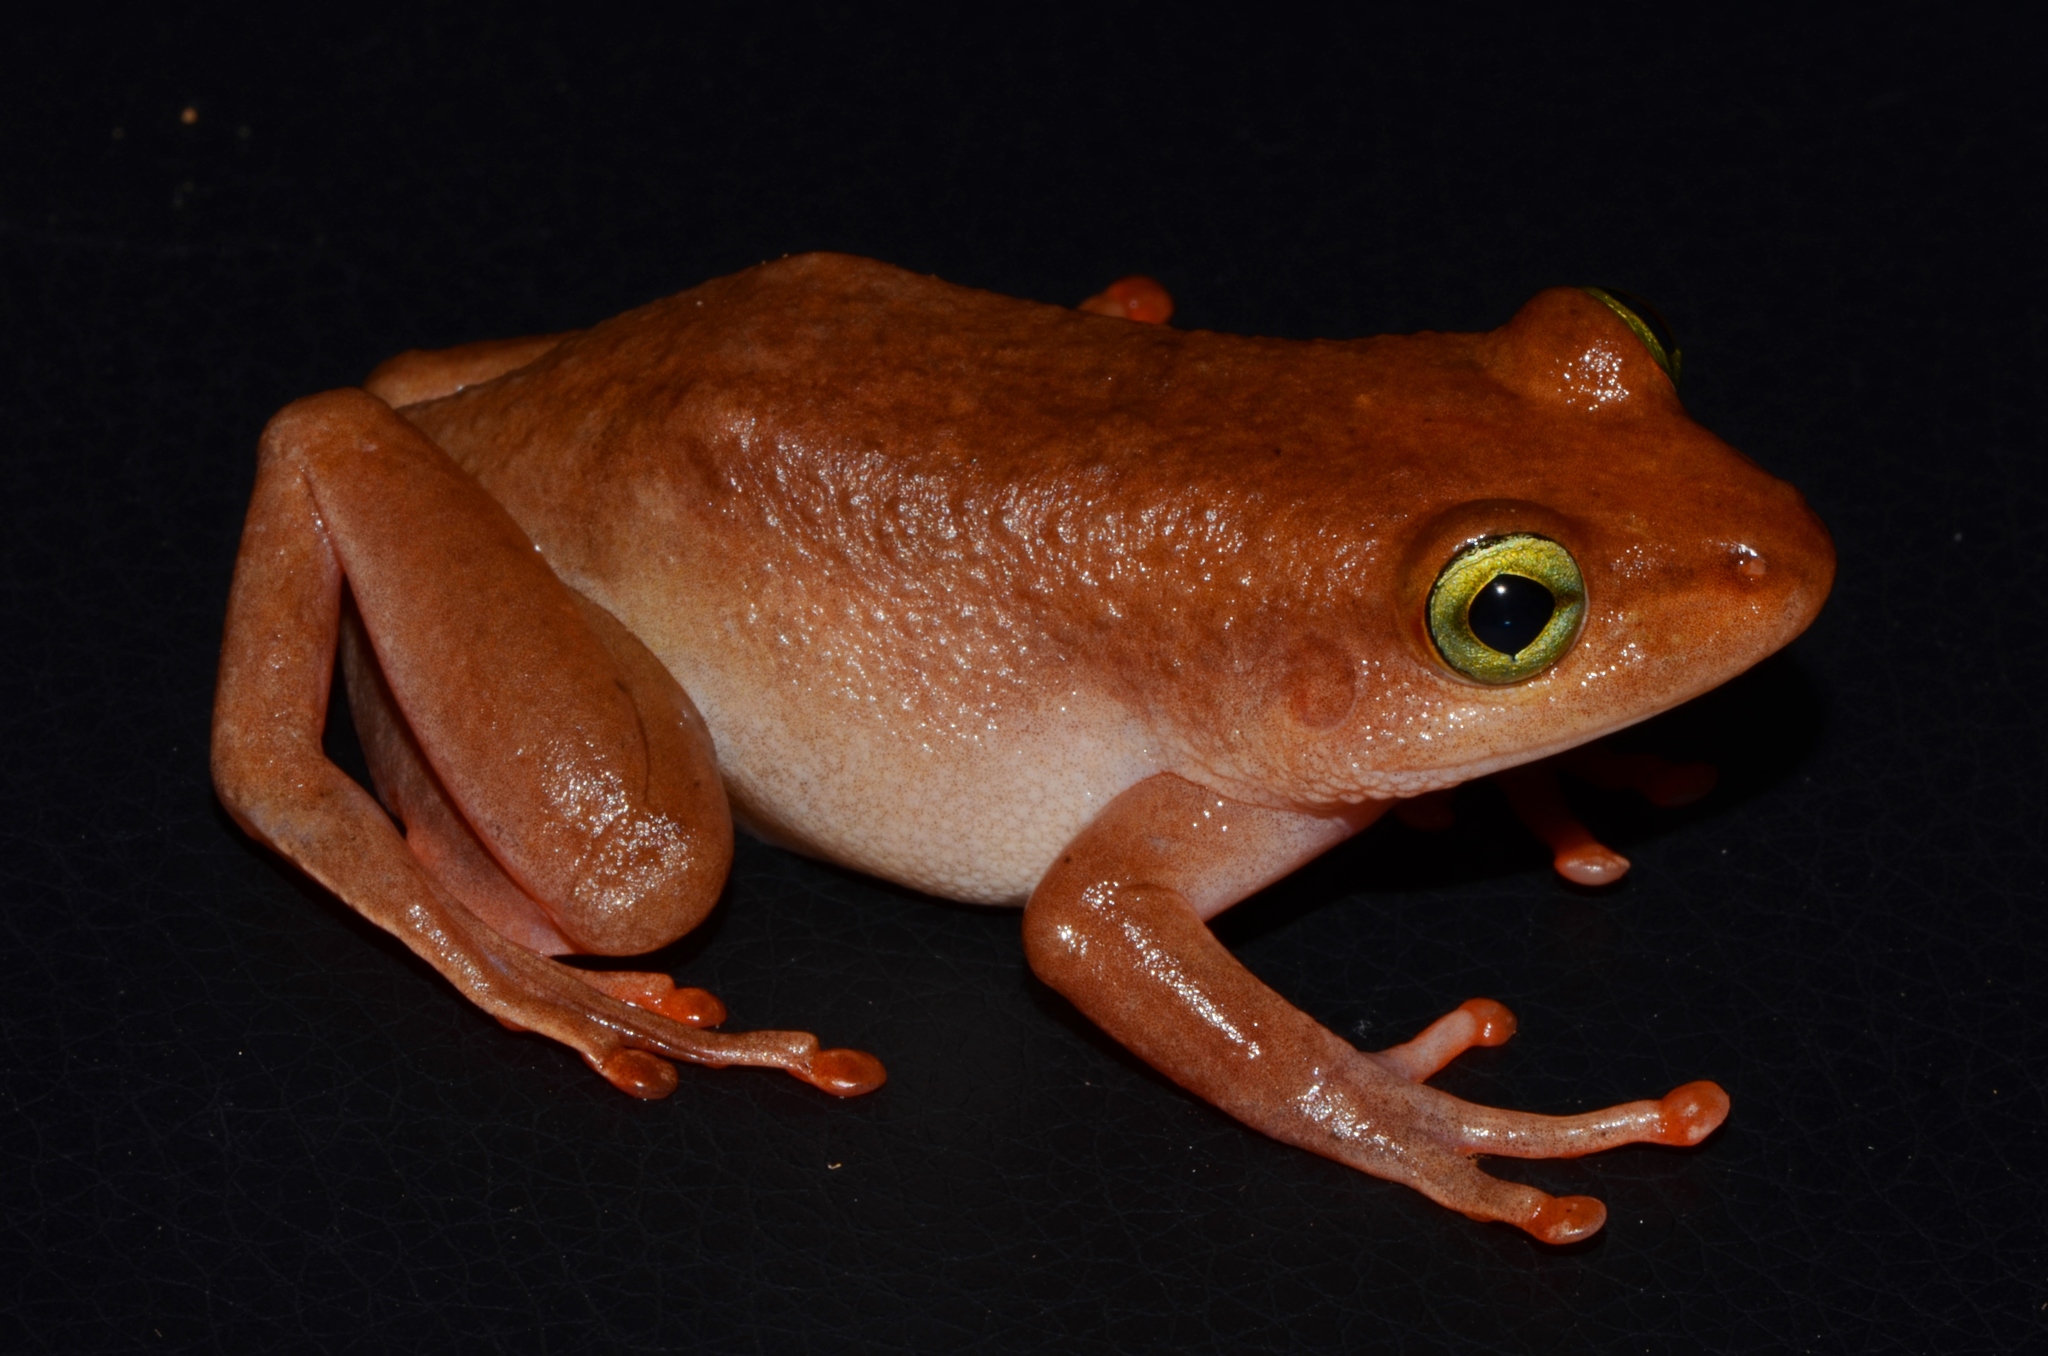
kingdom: Animalia
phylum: Chordata
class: Amphibia
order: Anura
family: Hyperoliidae
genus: Cryptothylax
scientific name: Cryptothylax greshoffii
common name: Greshoff's wax frog
